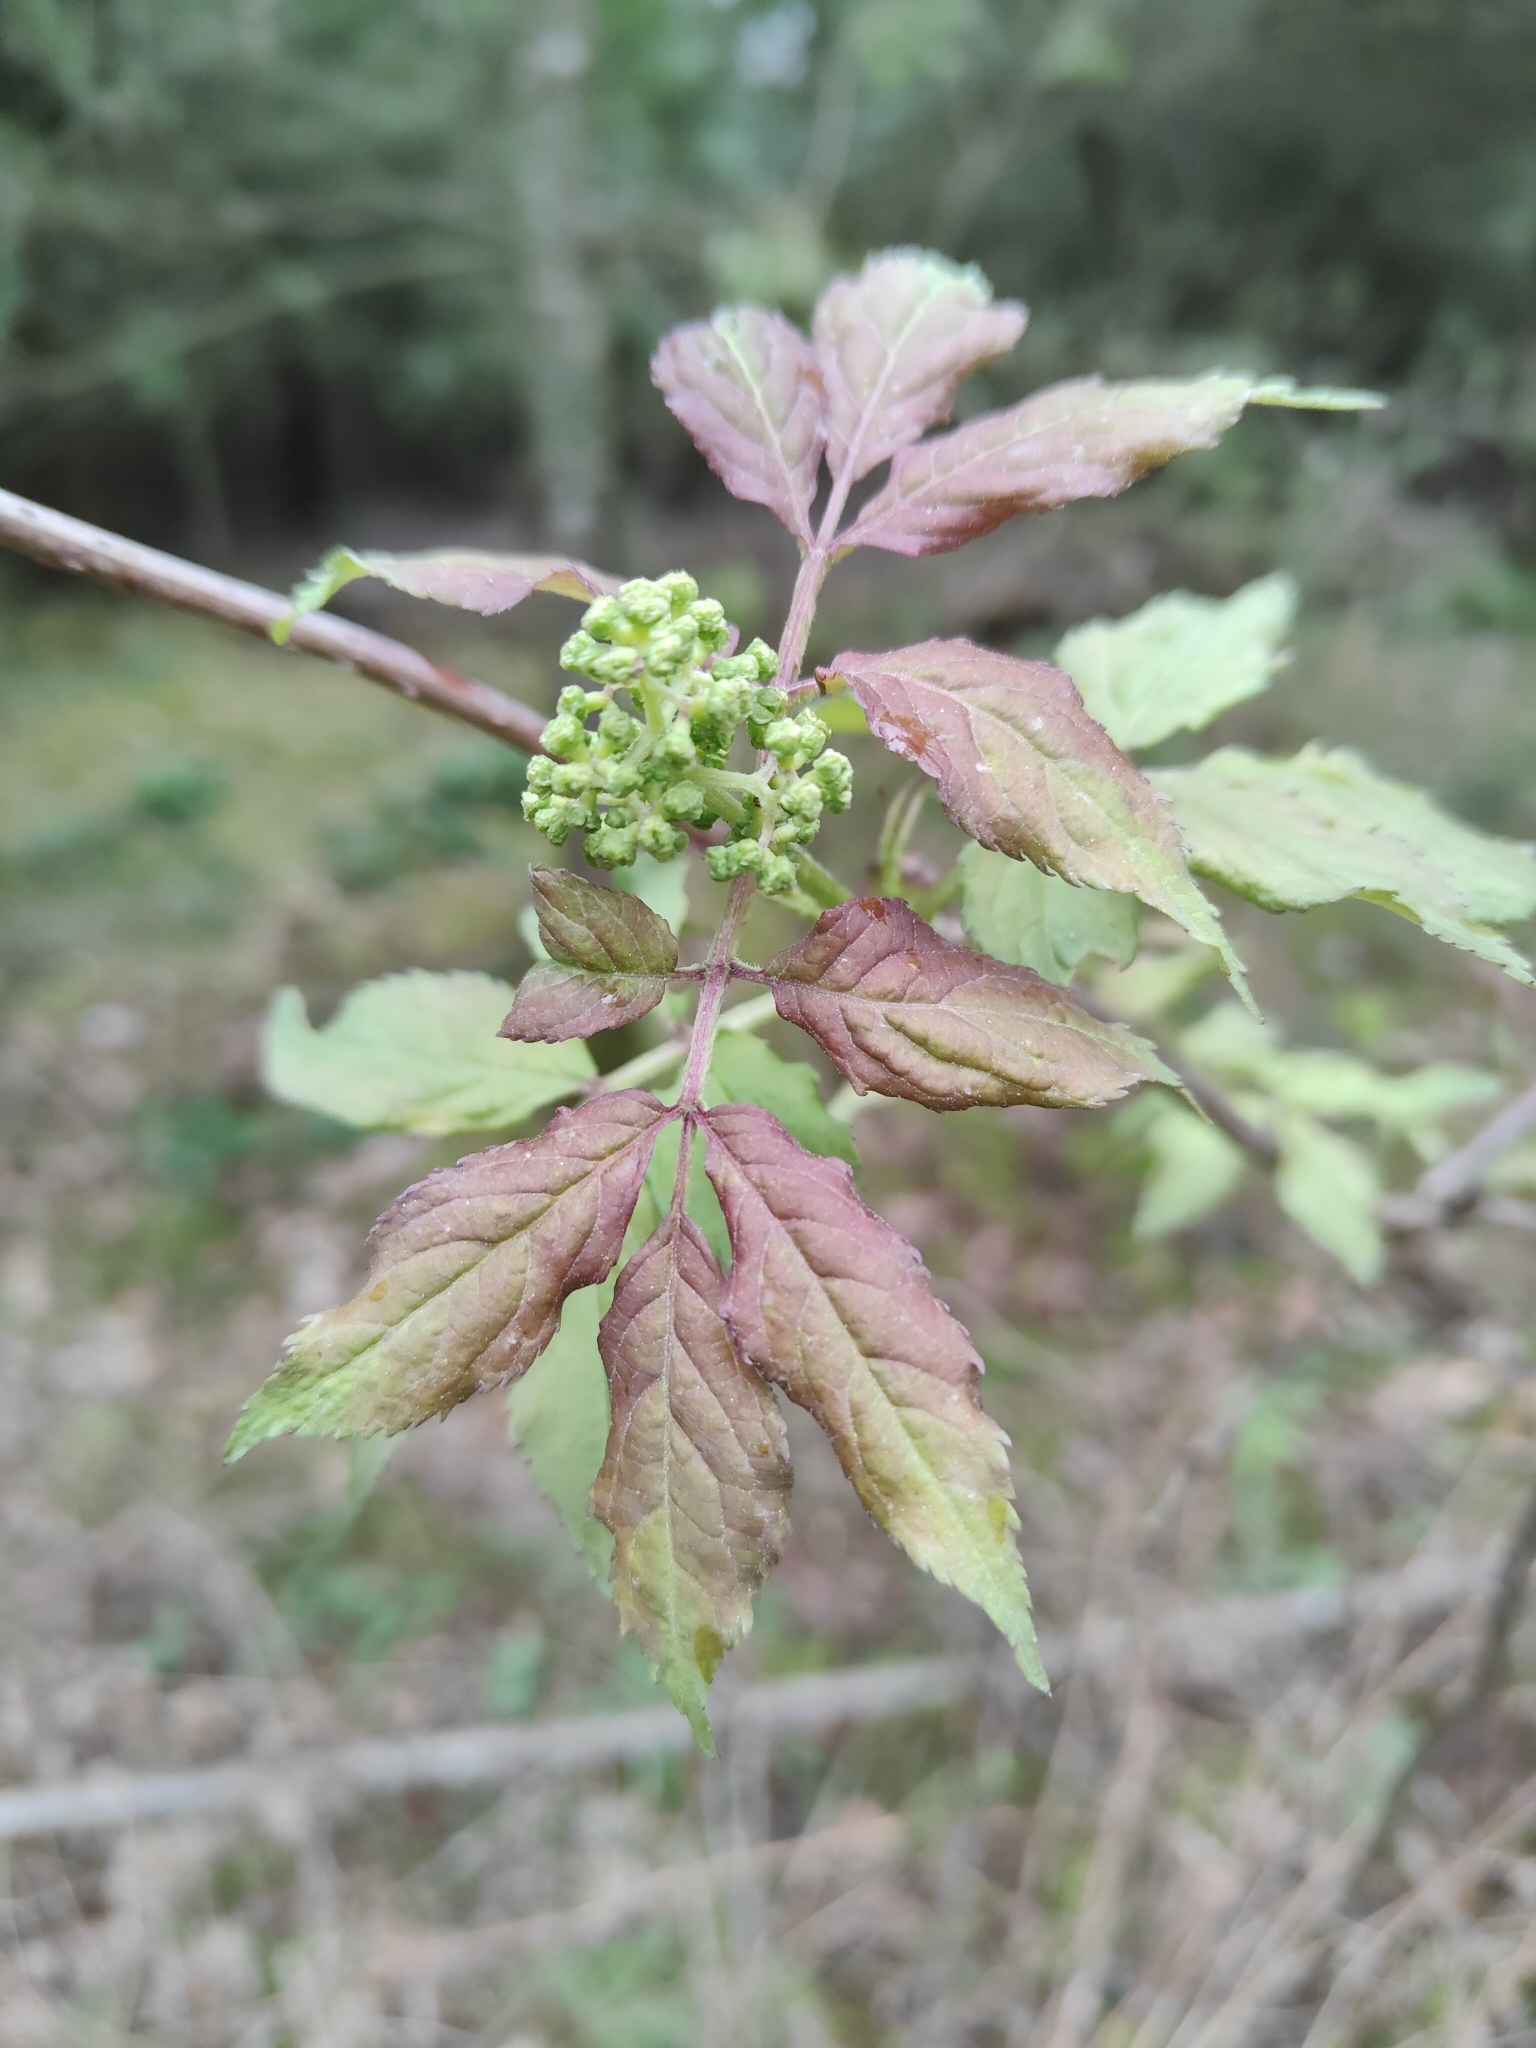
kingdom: Plantae
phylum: Tracheophyta
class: Magnoliopsida
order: Dipsacales
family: Viburnaceae
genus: Sambucus
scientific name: Sambucus racemosa
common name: Red-berried elder
